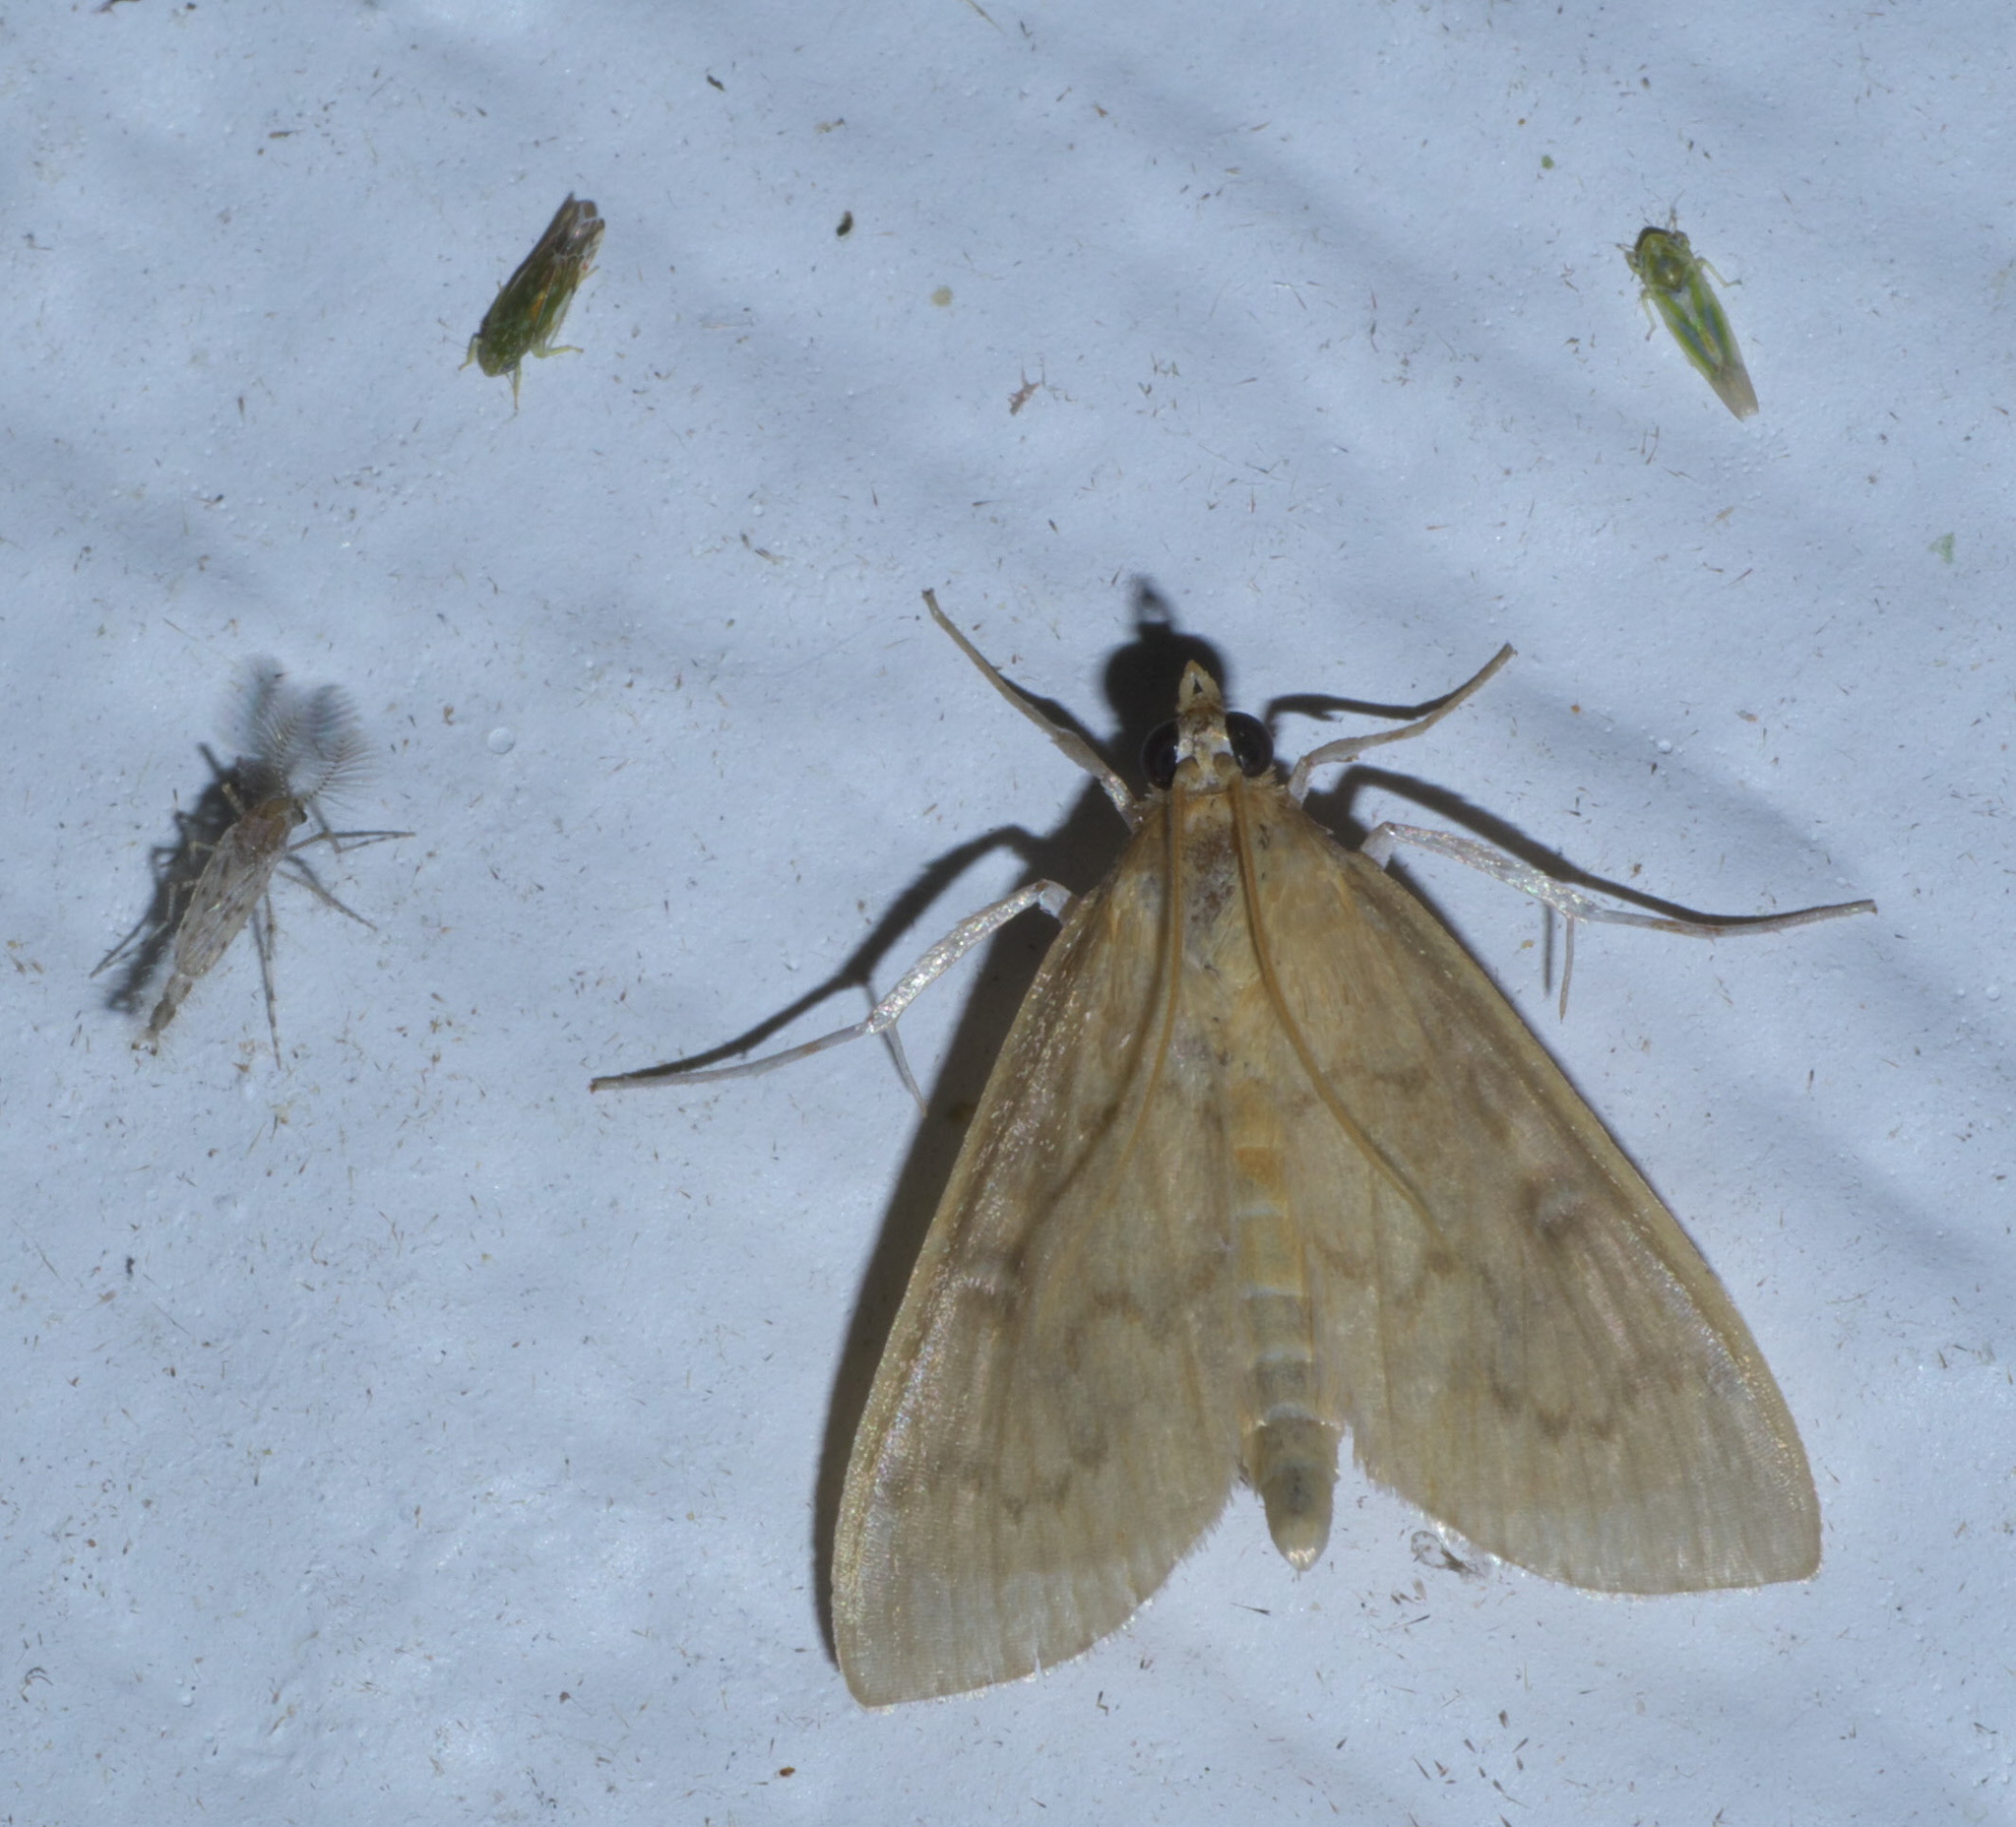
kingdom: Animalia
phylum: Arthropoda
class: Insecta
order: Lepidoptera
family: Crambidae
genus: Anania
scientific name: Anania Framinghamia helvalis
